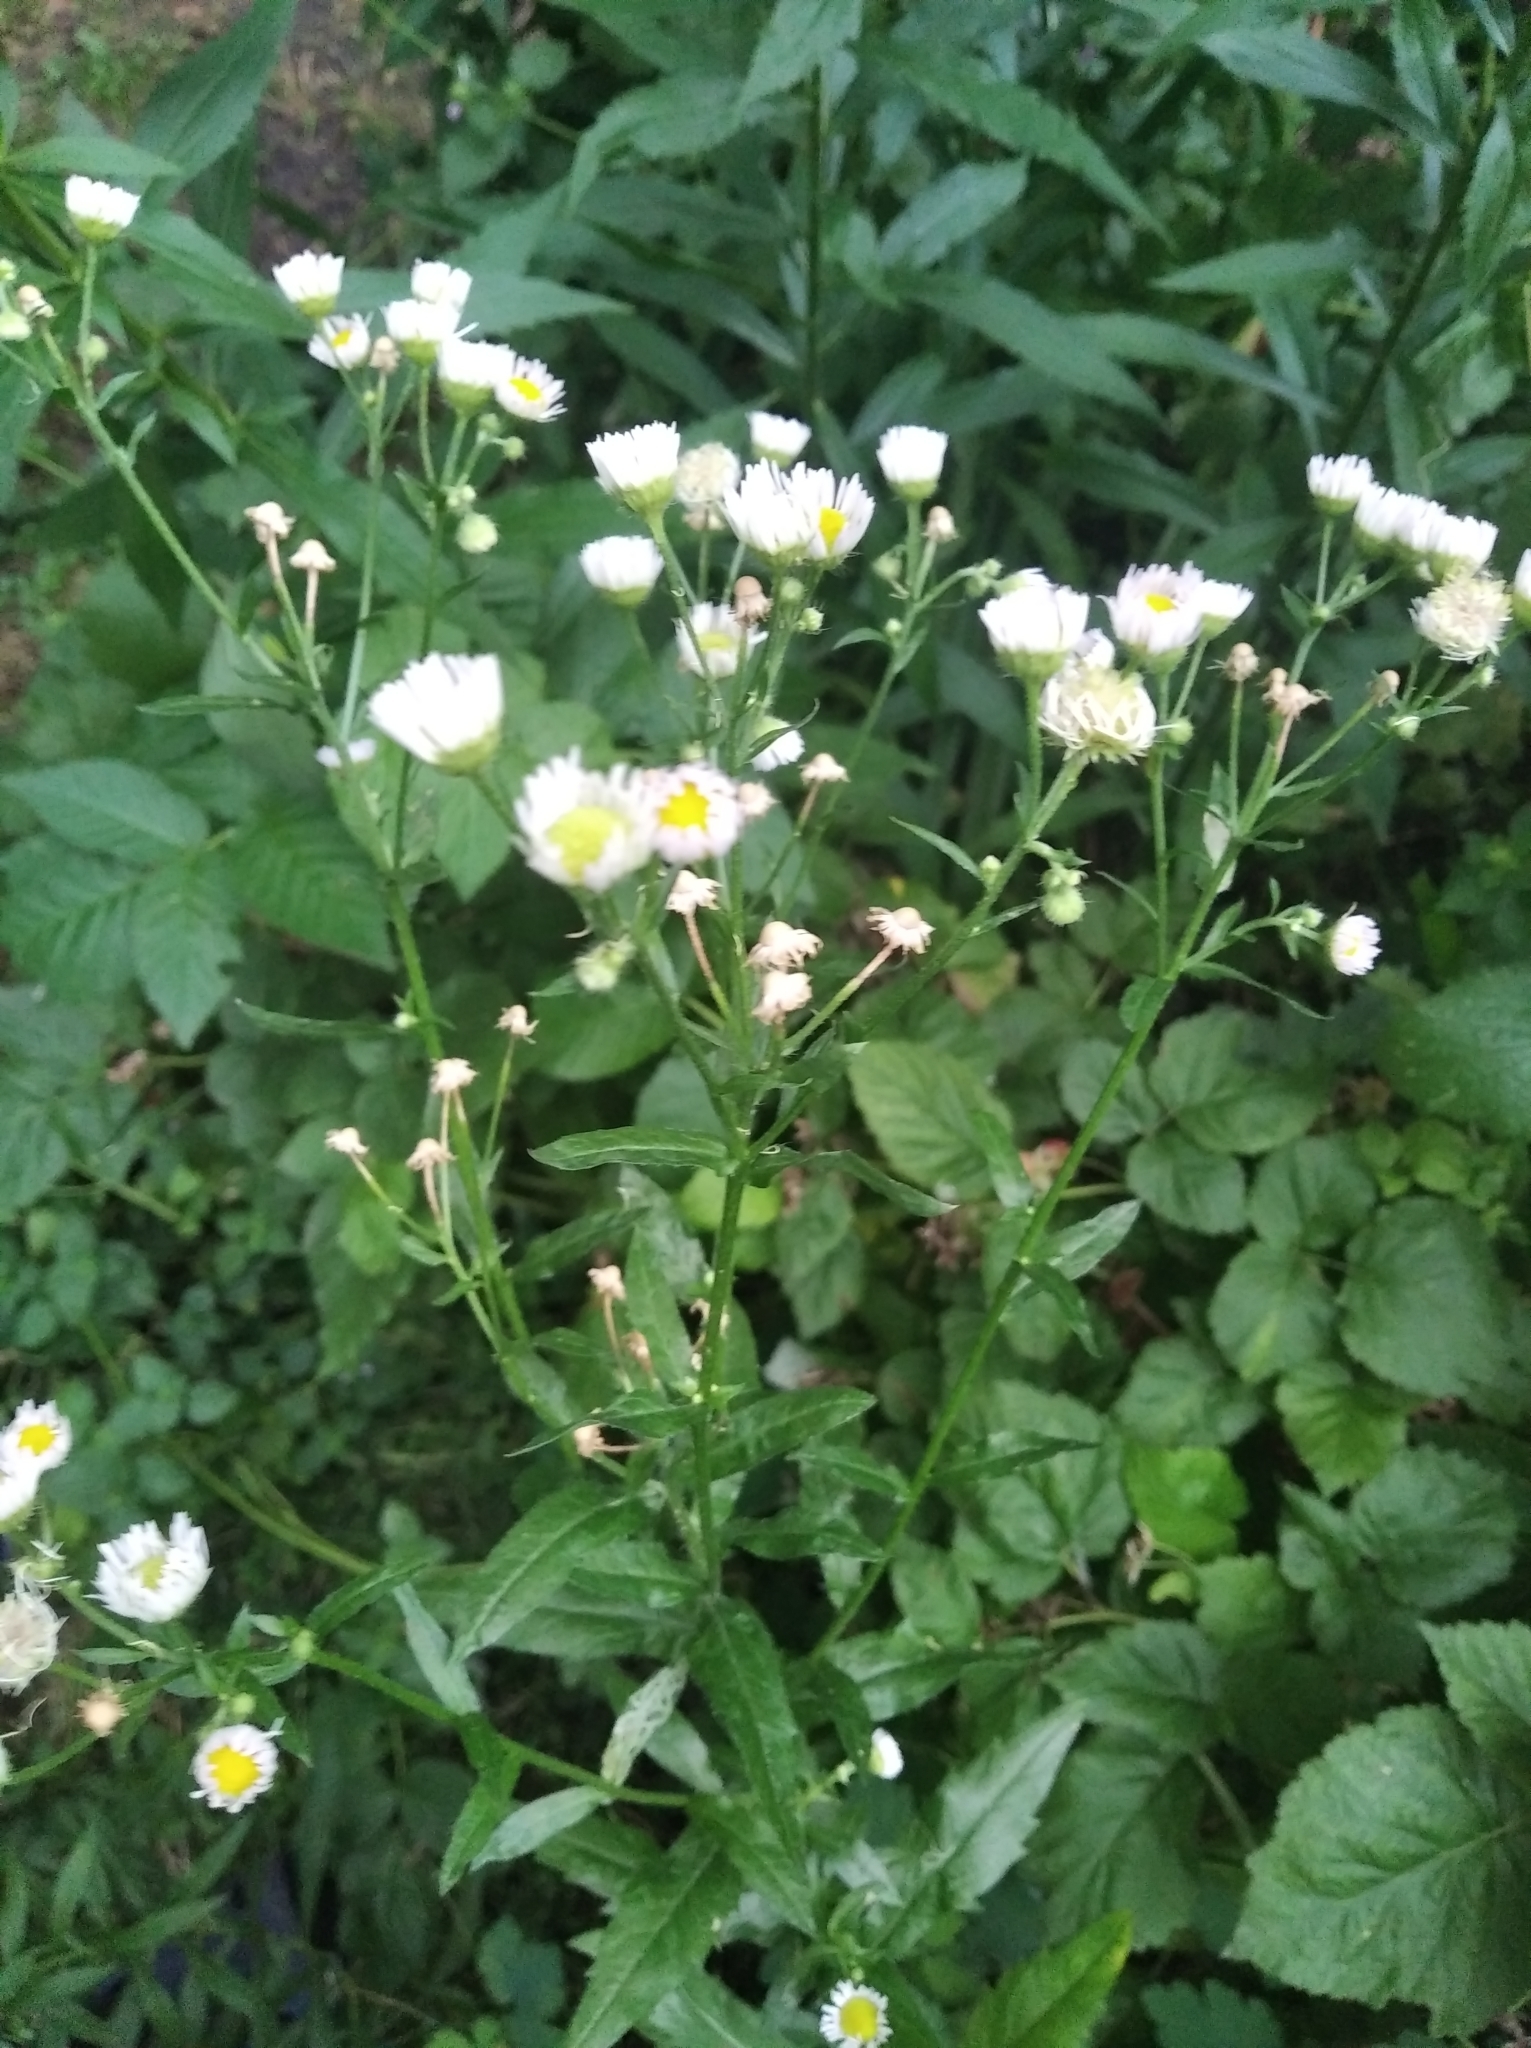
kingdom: Plantae
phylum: Tracheophyta
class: Magnoliopsida
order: Asterales
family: Asteraceae
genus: Erigeron
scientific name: Erigeron annuus
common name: Tall fleabane
